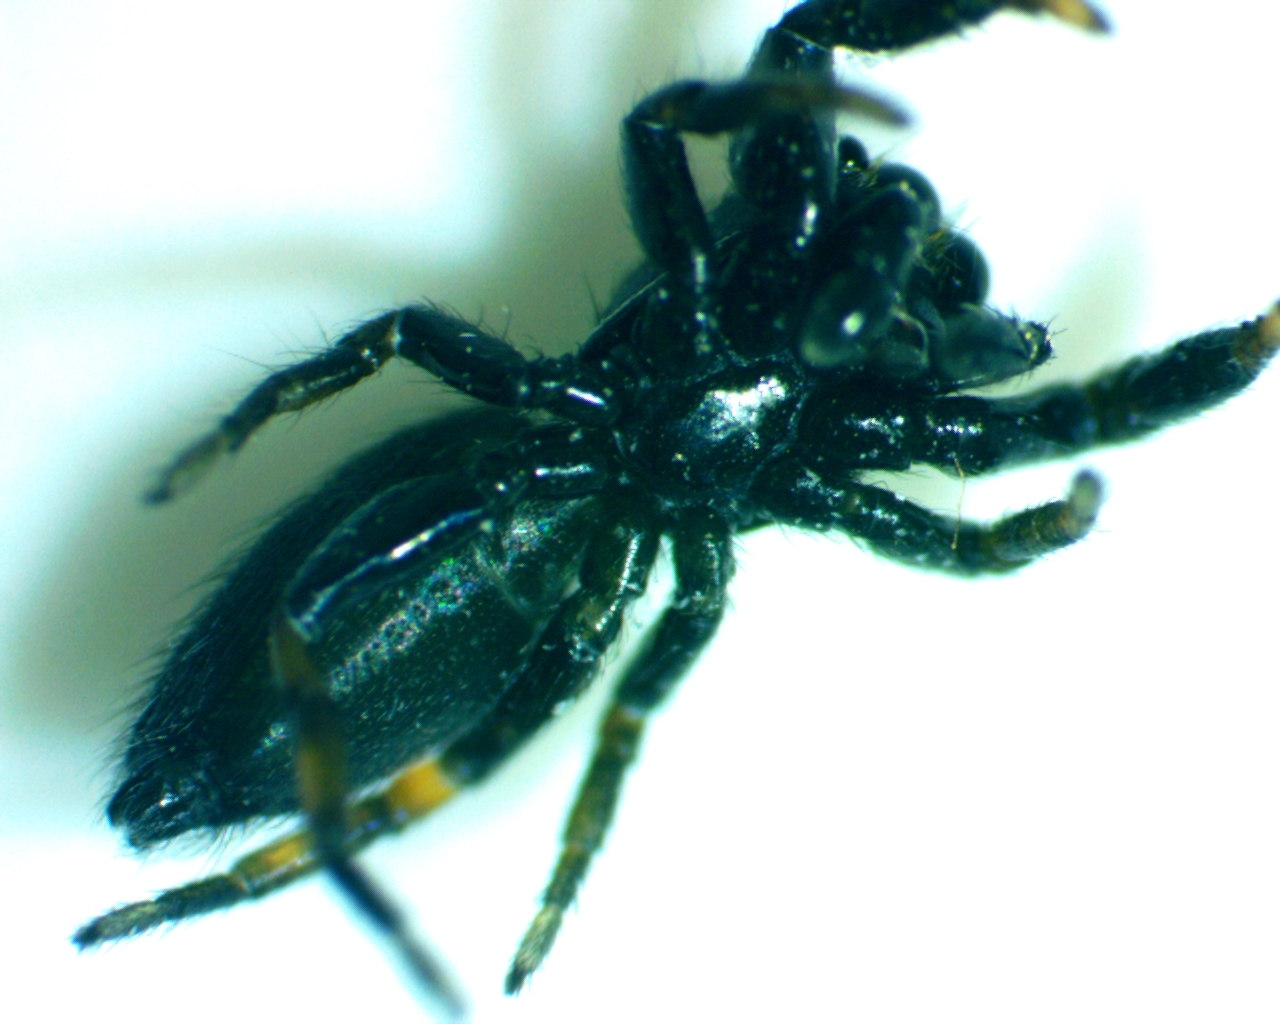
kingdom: Animalia
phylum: Arthropoda
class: Arachnida
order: Araneae
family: Salticidae
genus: Metacyrba
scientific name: Metacyrba taeniola
